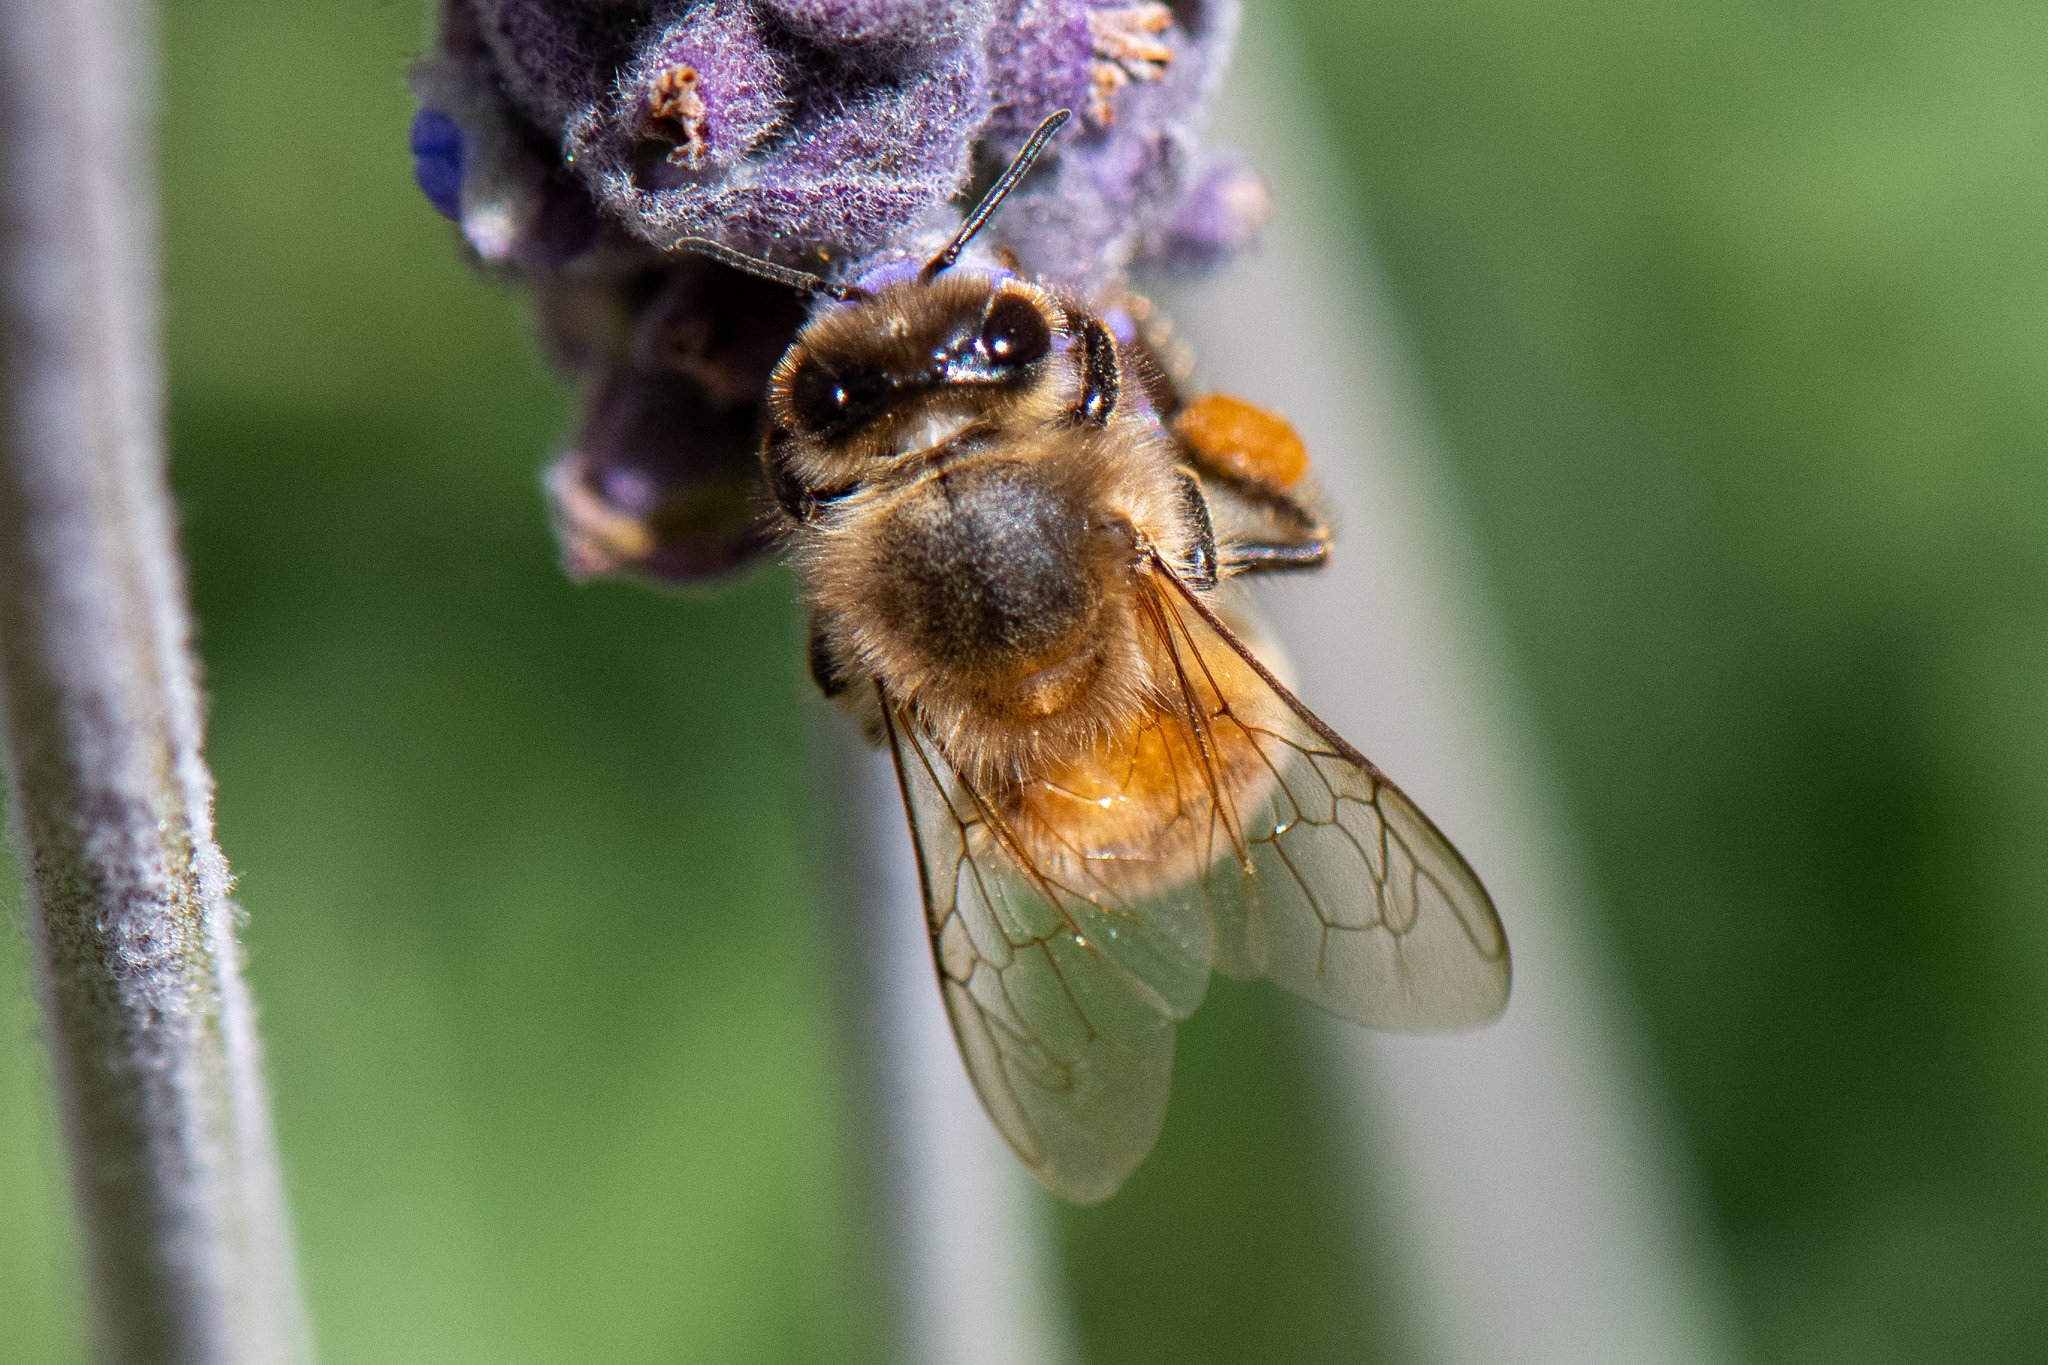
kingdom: Animalia
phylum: Arthropoda
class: Insecta
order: Hymenoptera
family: Apidae
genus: Apis
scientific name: Apis mellifera
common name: Honey bee
